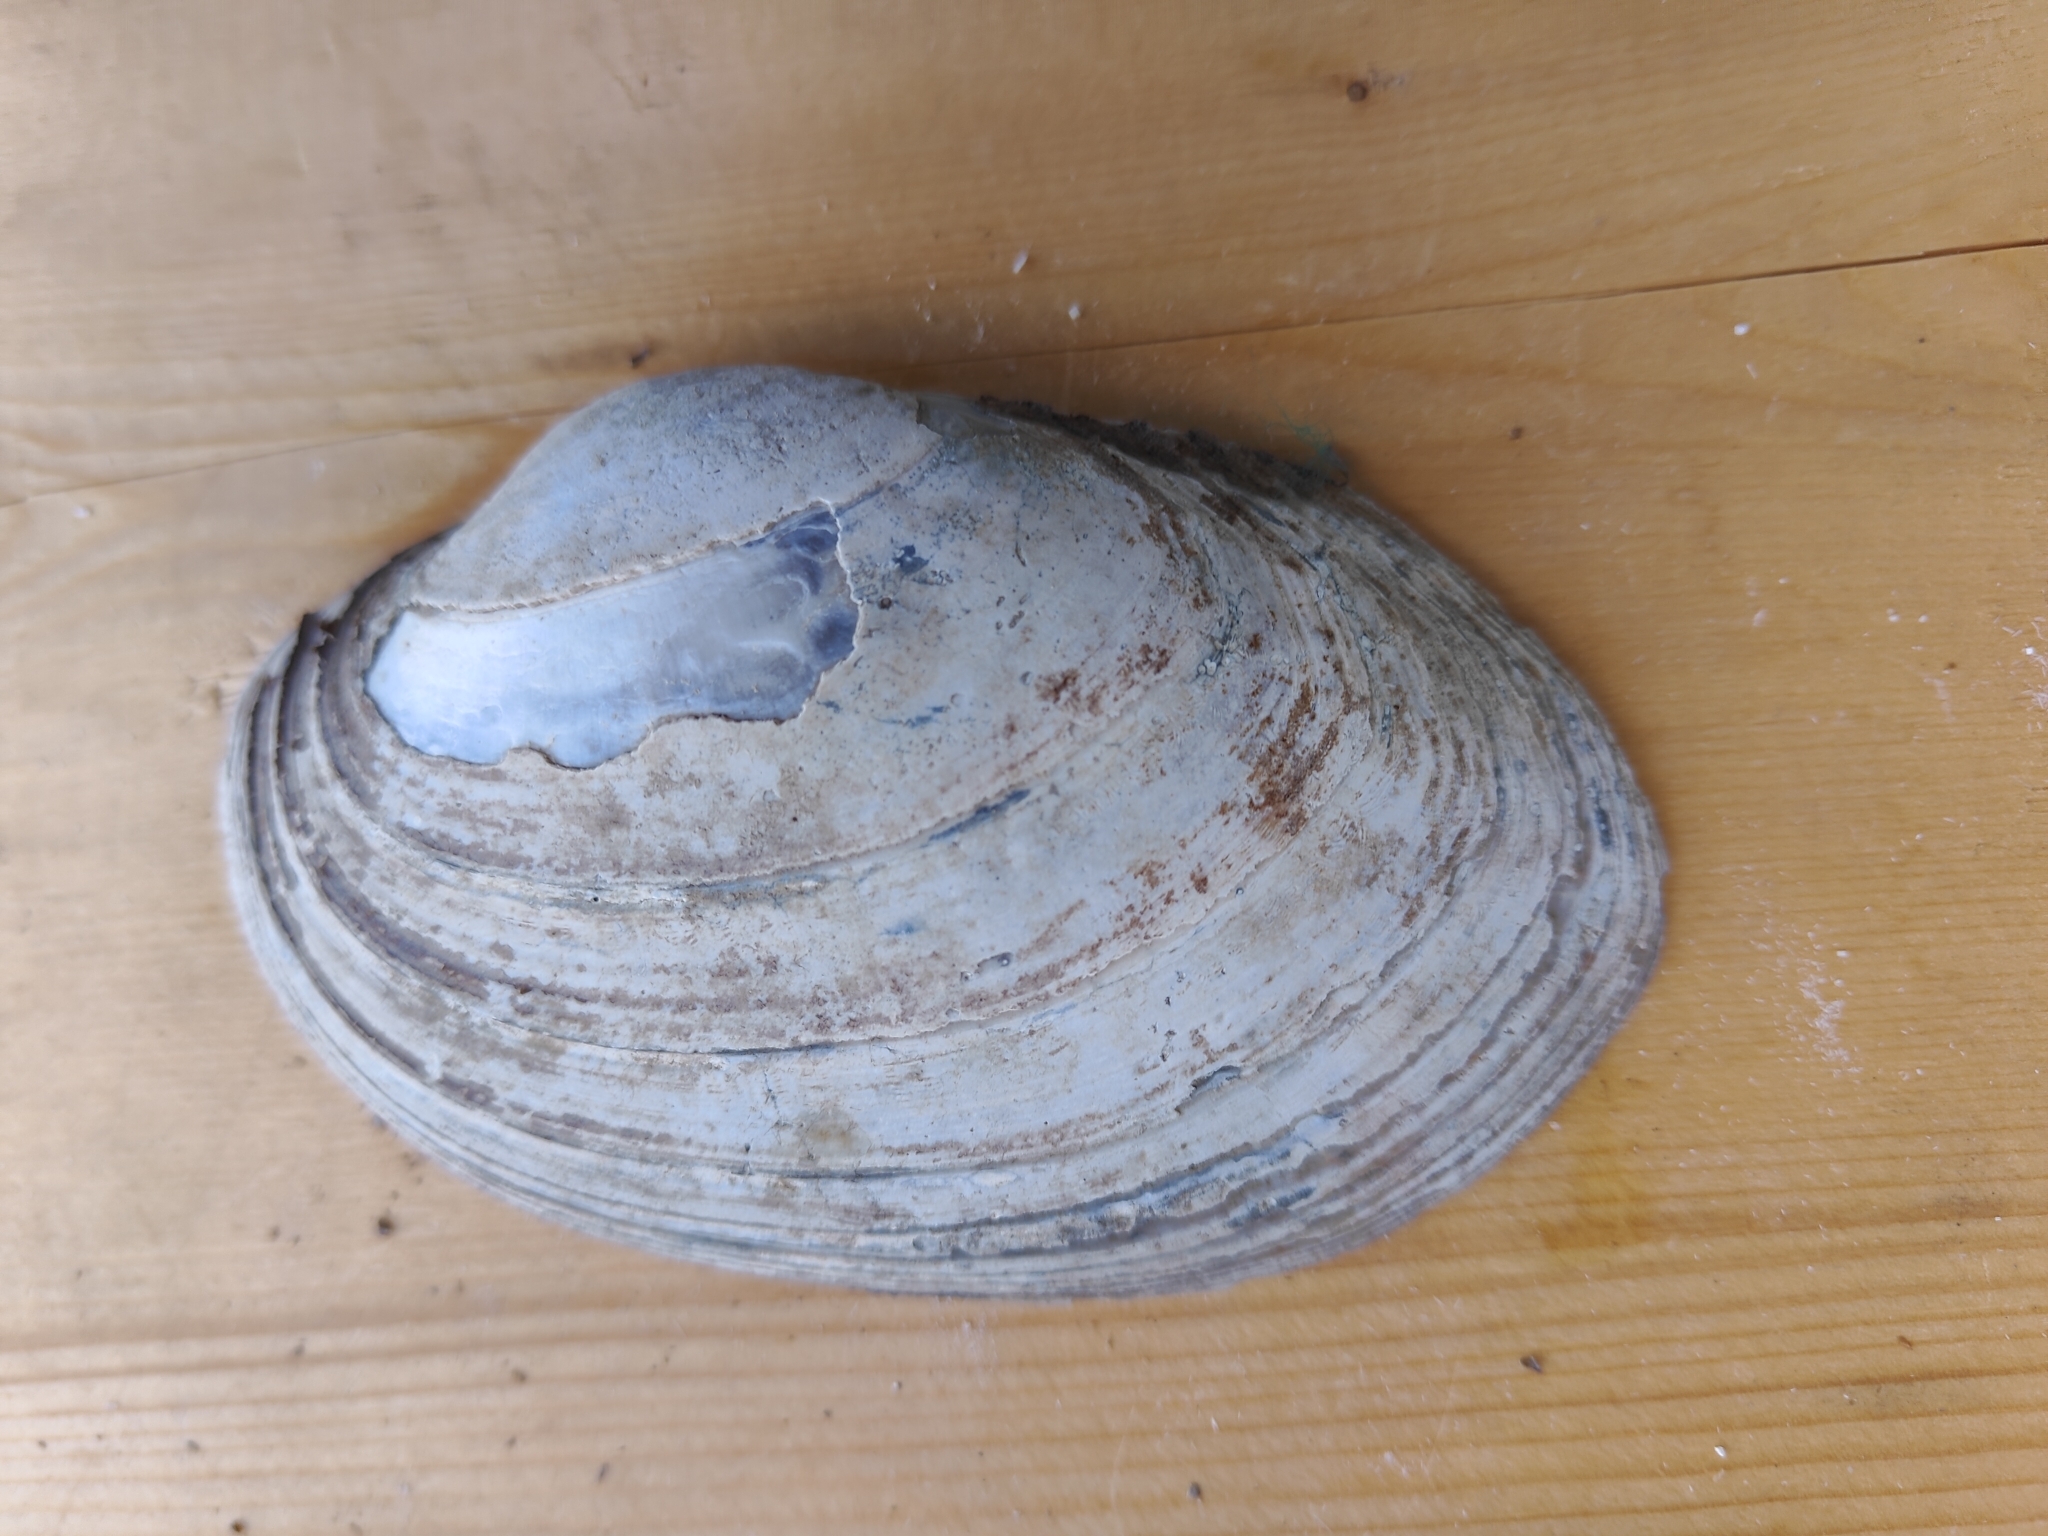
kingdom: Animalia
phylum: Mollusca
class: Bivalvia
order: Unionida
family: Unionidae
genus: Lampsilis
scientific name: Lampsilis cardium
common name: Plain pocketbook
